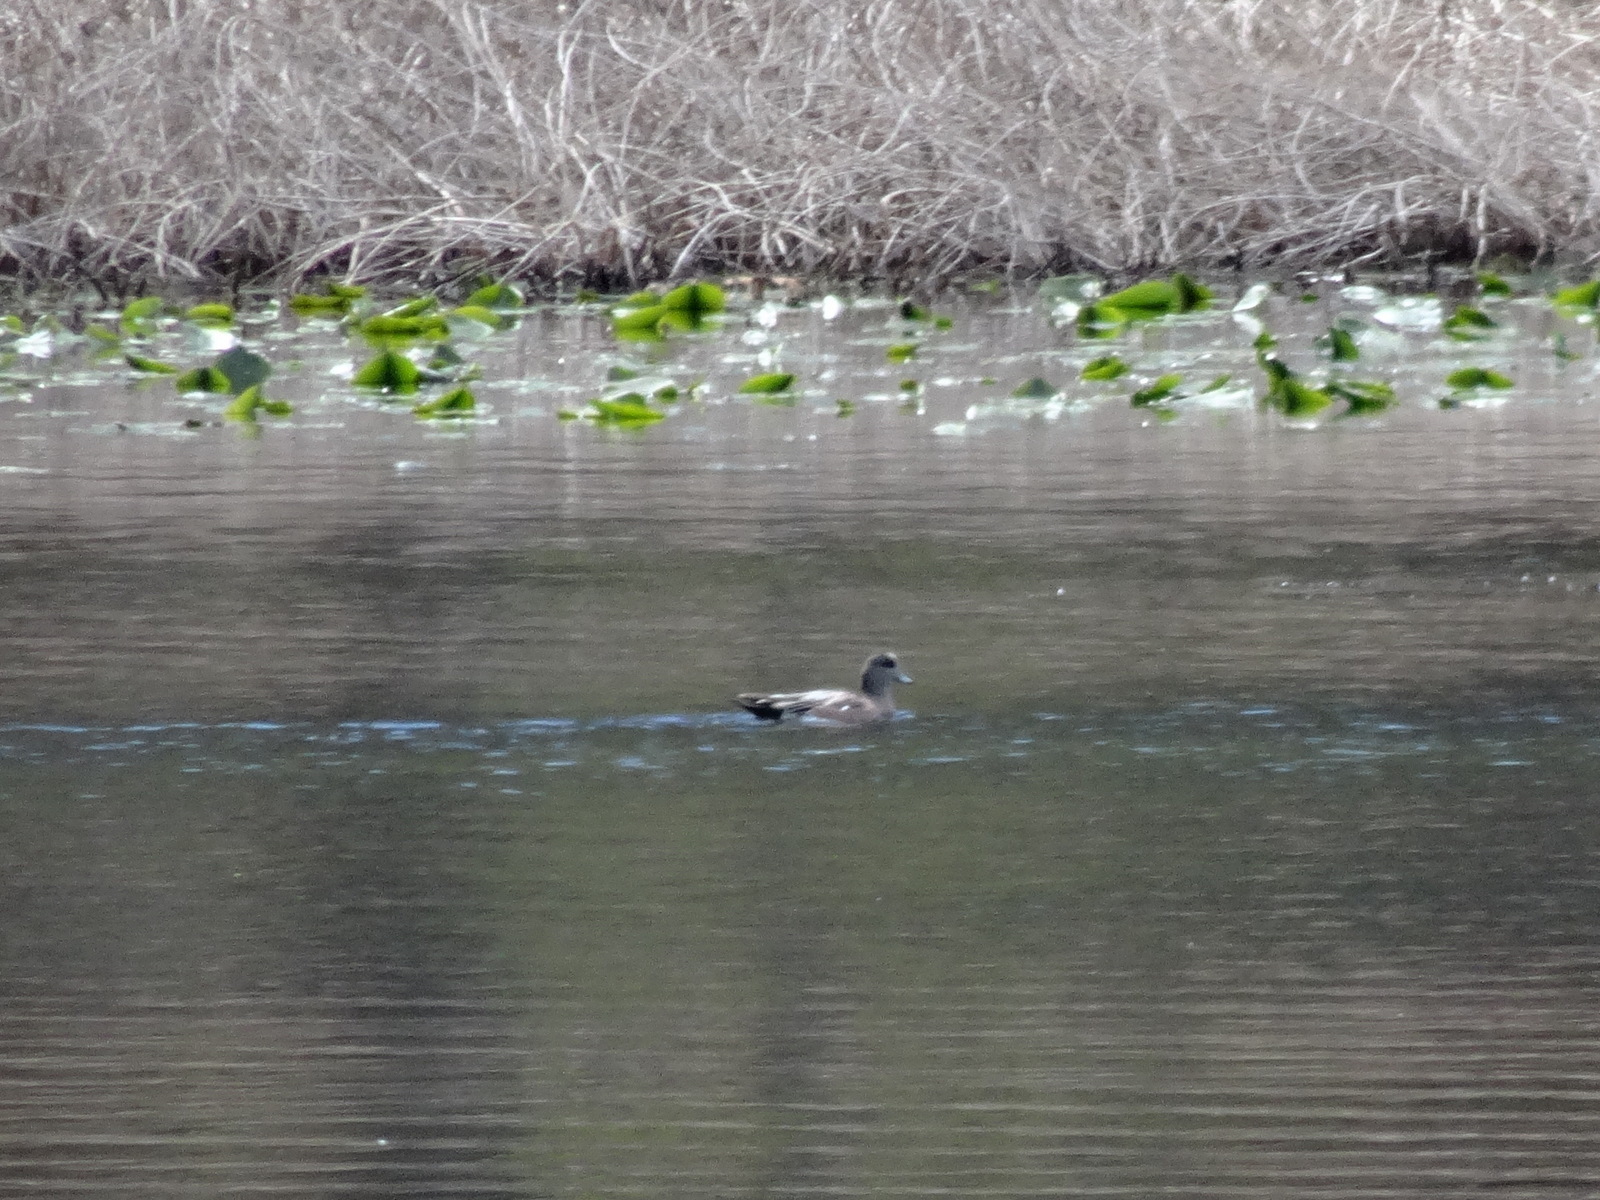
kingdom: Animalia
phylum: Chordata
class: Aves
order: Anseriformes
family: Anatidae
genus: Mareca
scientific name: Mareca americana
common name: American wigeon
